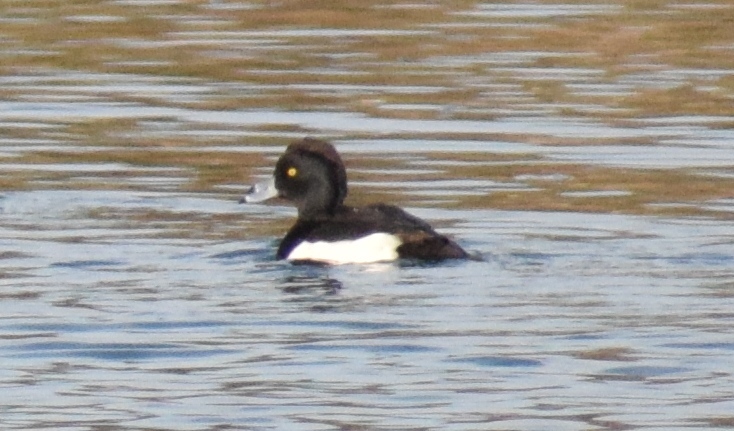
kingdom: Animalia
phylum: Chordata
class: Aves
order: Anseriformes
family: Anatidae
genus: Aythya
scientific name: Aythya fuligula
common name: Tufted duck
